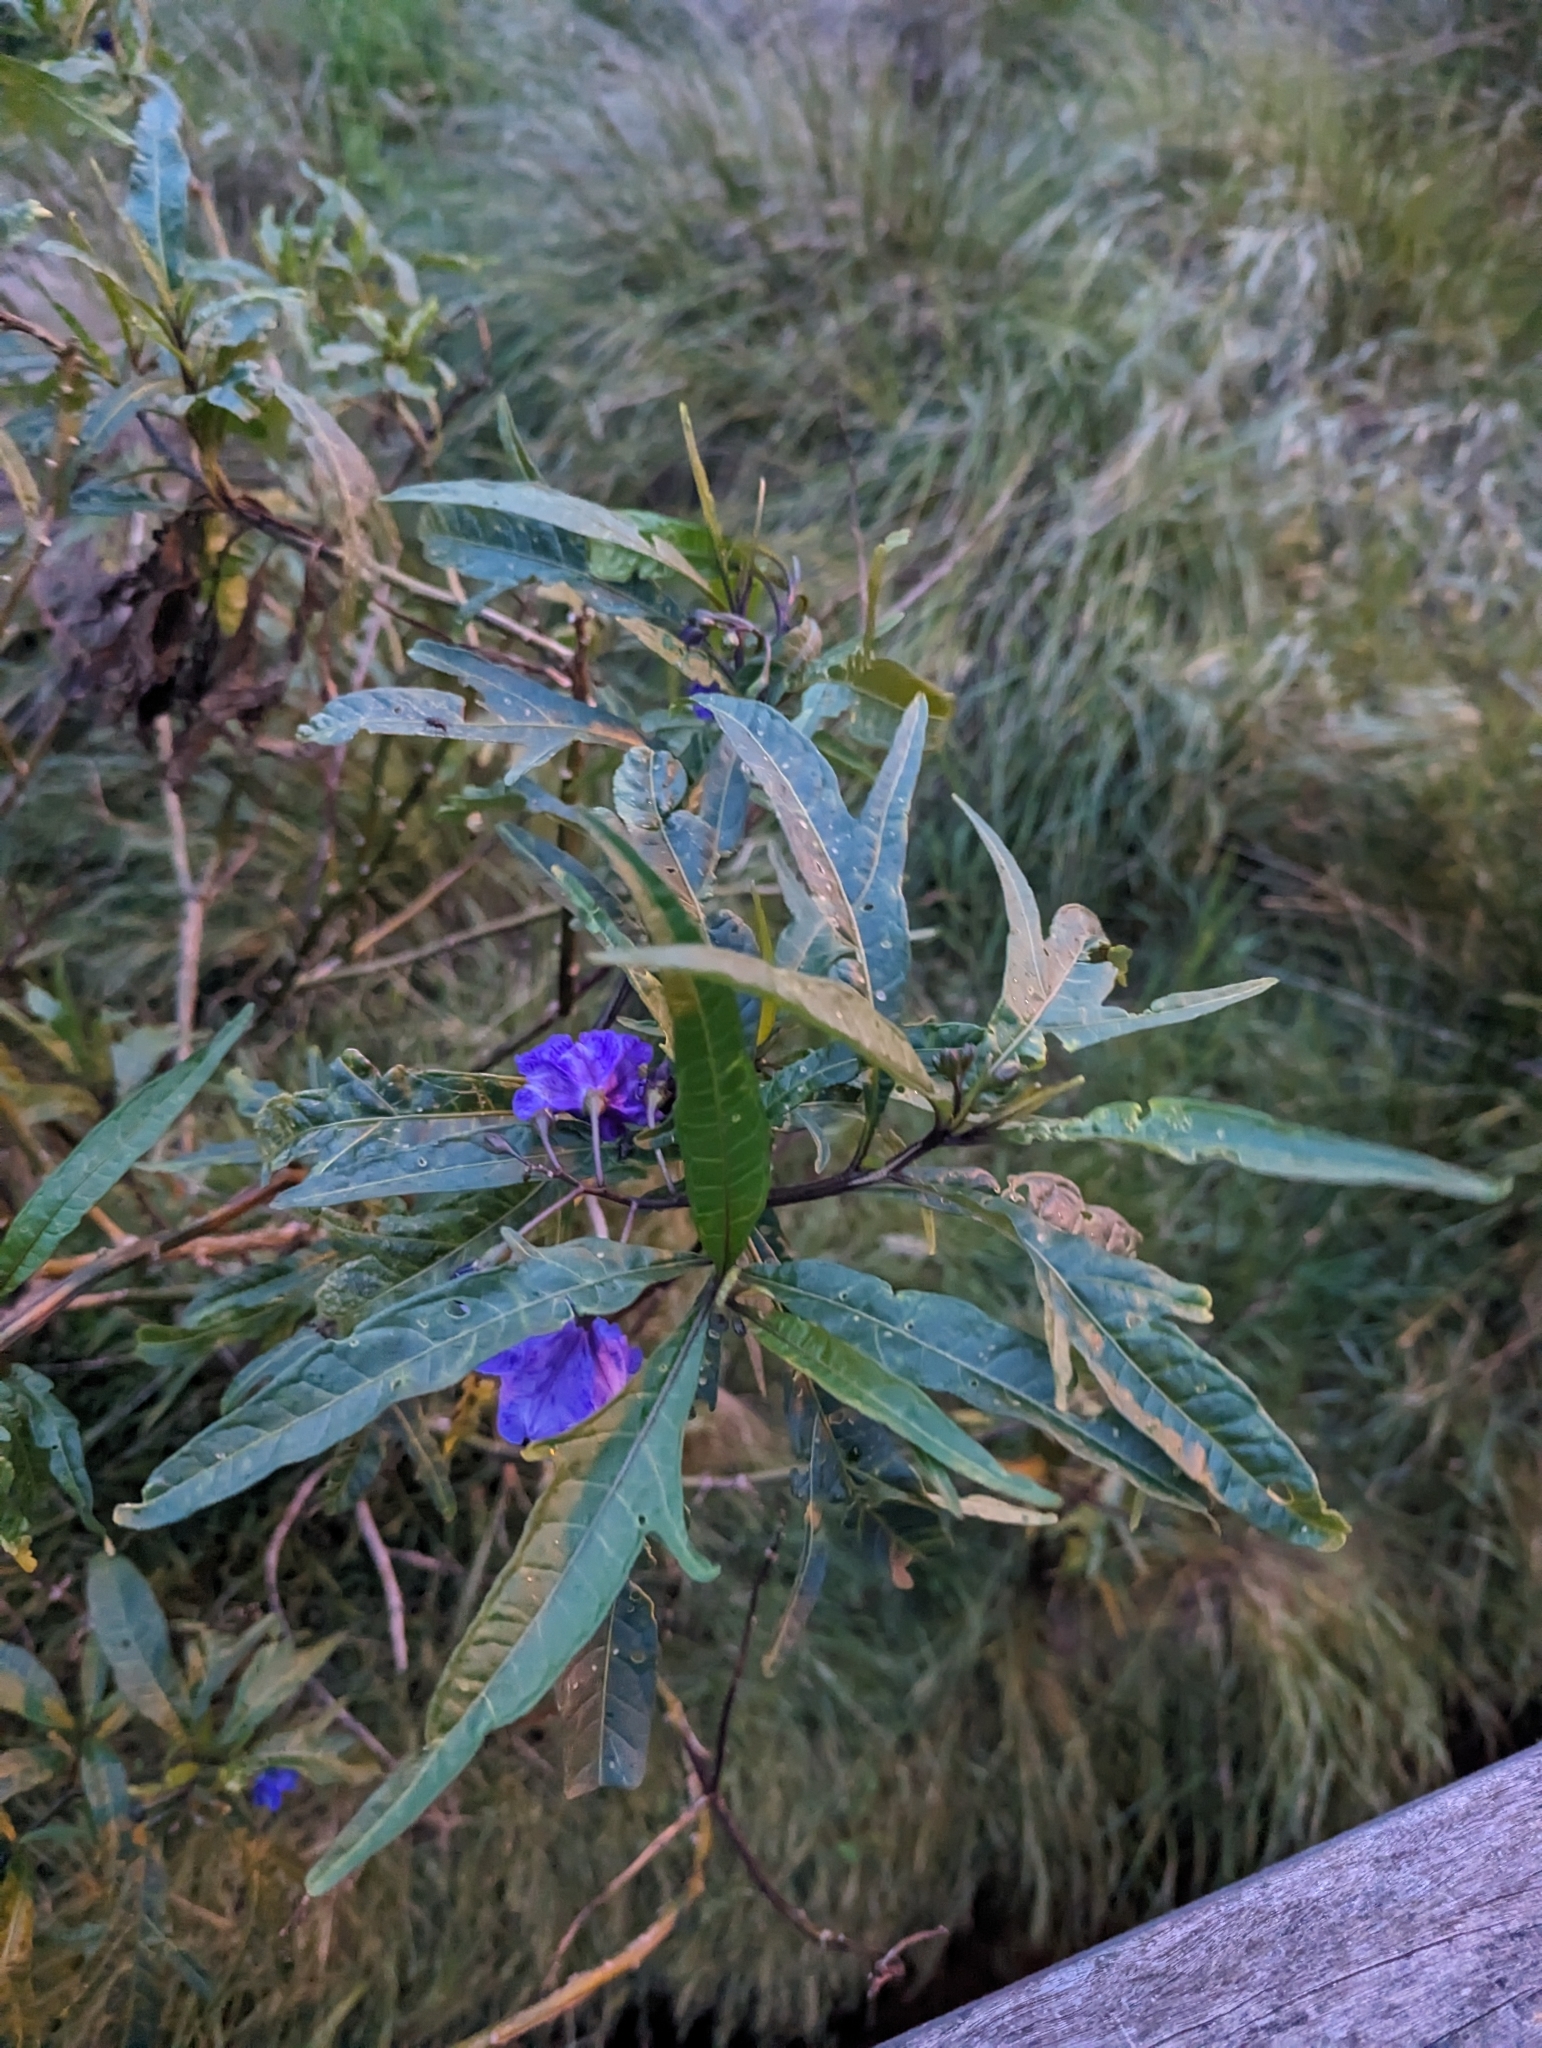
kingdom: Plantae
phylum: Tracheophyta
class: Magnoliopsida
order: Solanales
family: Solanaceae
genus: Solanum
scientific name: Solanum laciniatum
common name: Kangaroo-apple
